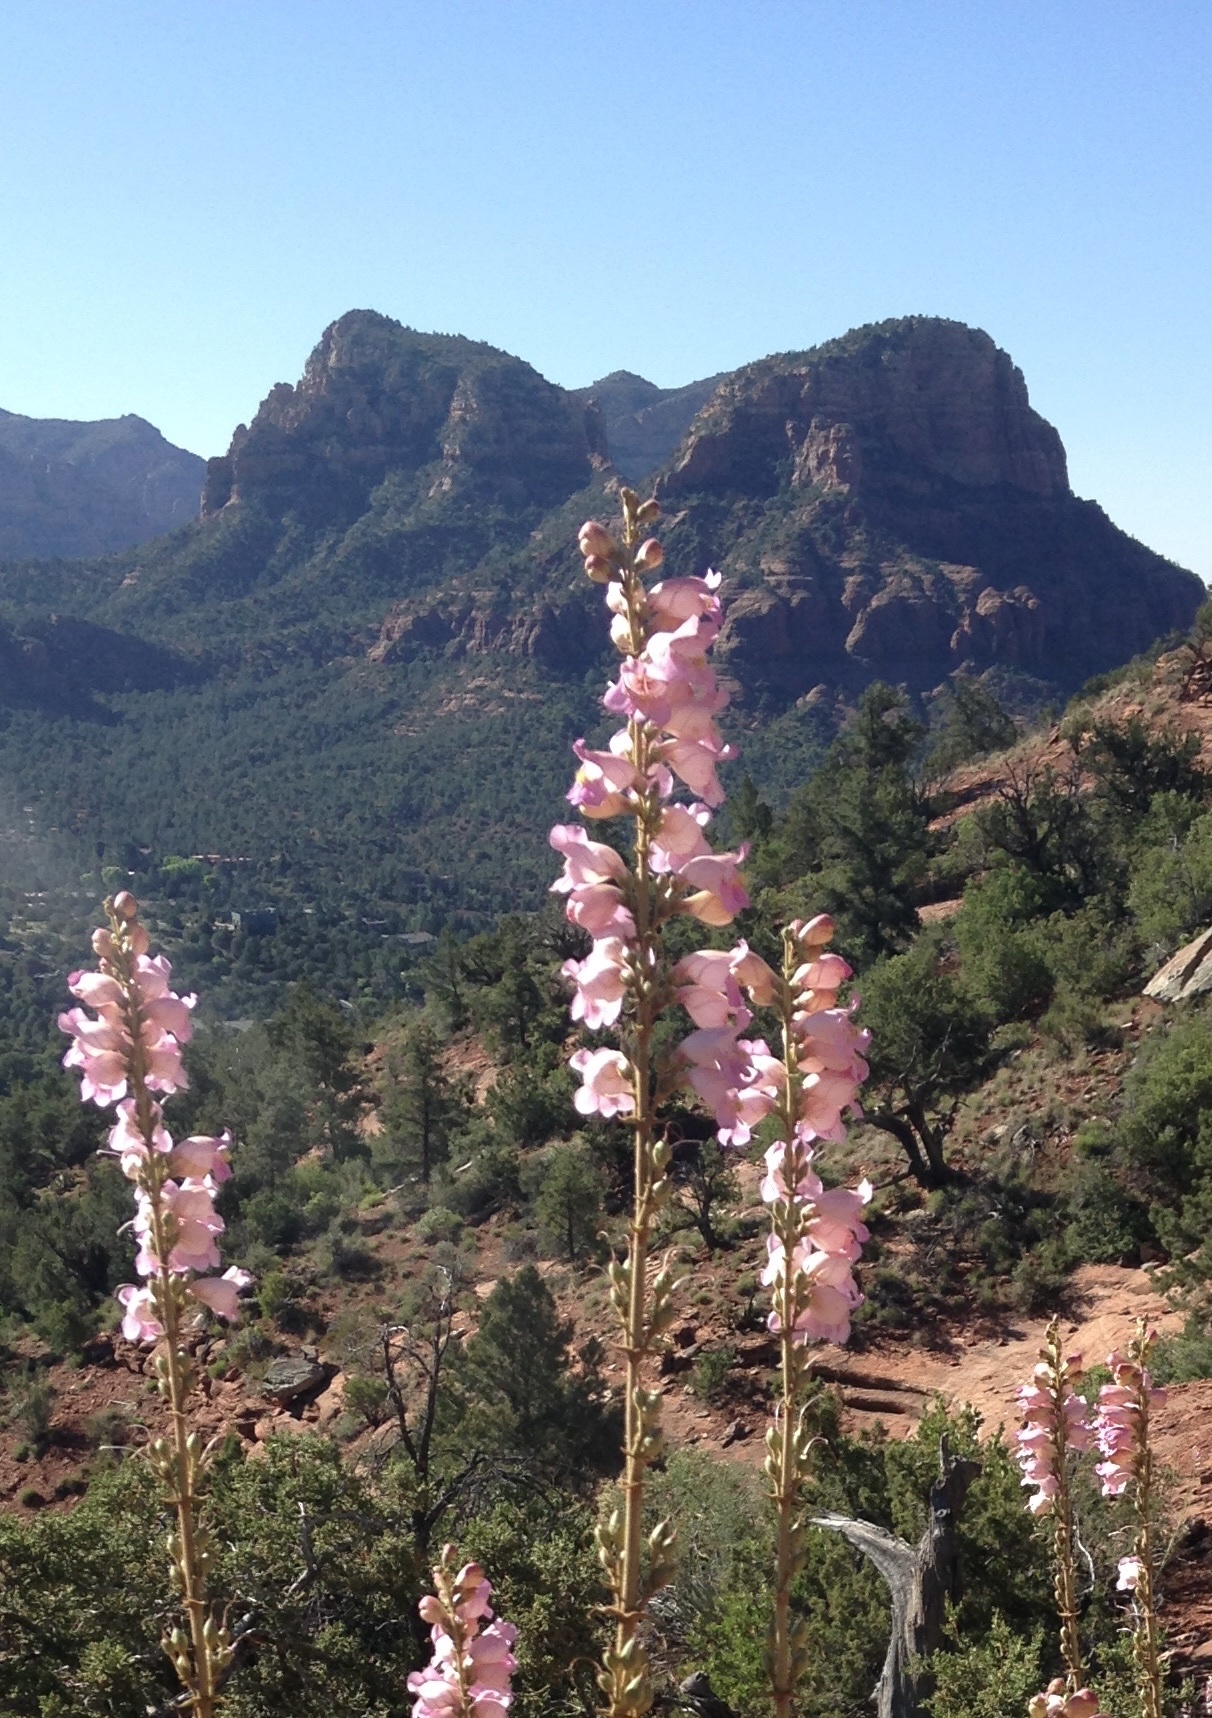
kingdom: Plantae
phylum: Tracheophyta
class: Magnoliopsida
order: Lamiales
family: Plantaginaceae
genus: Penstemon
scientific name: Penstemon palmeri
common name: Palmer penstemon
